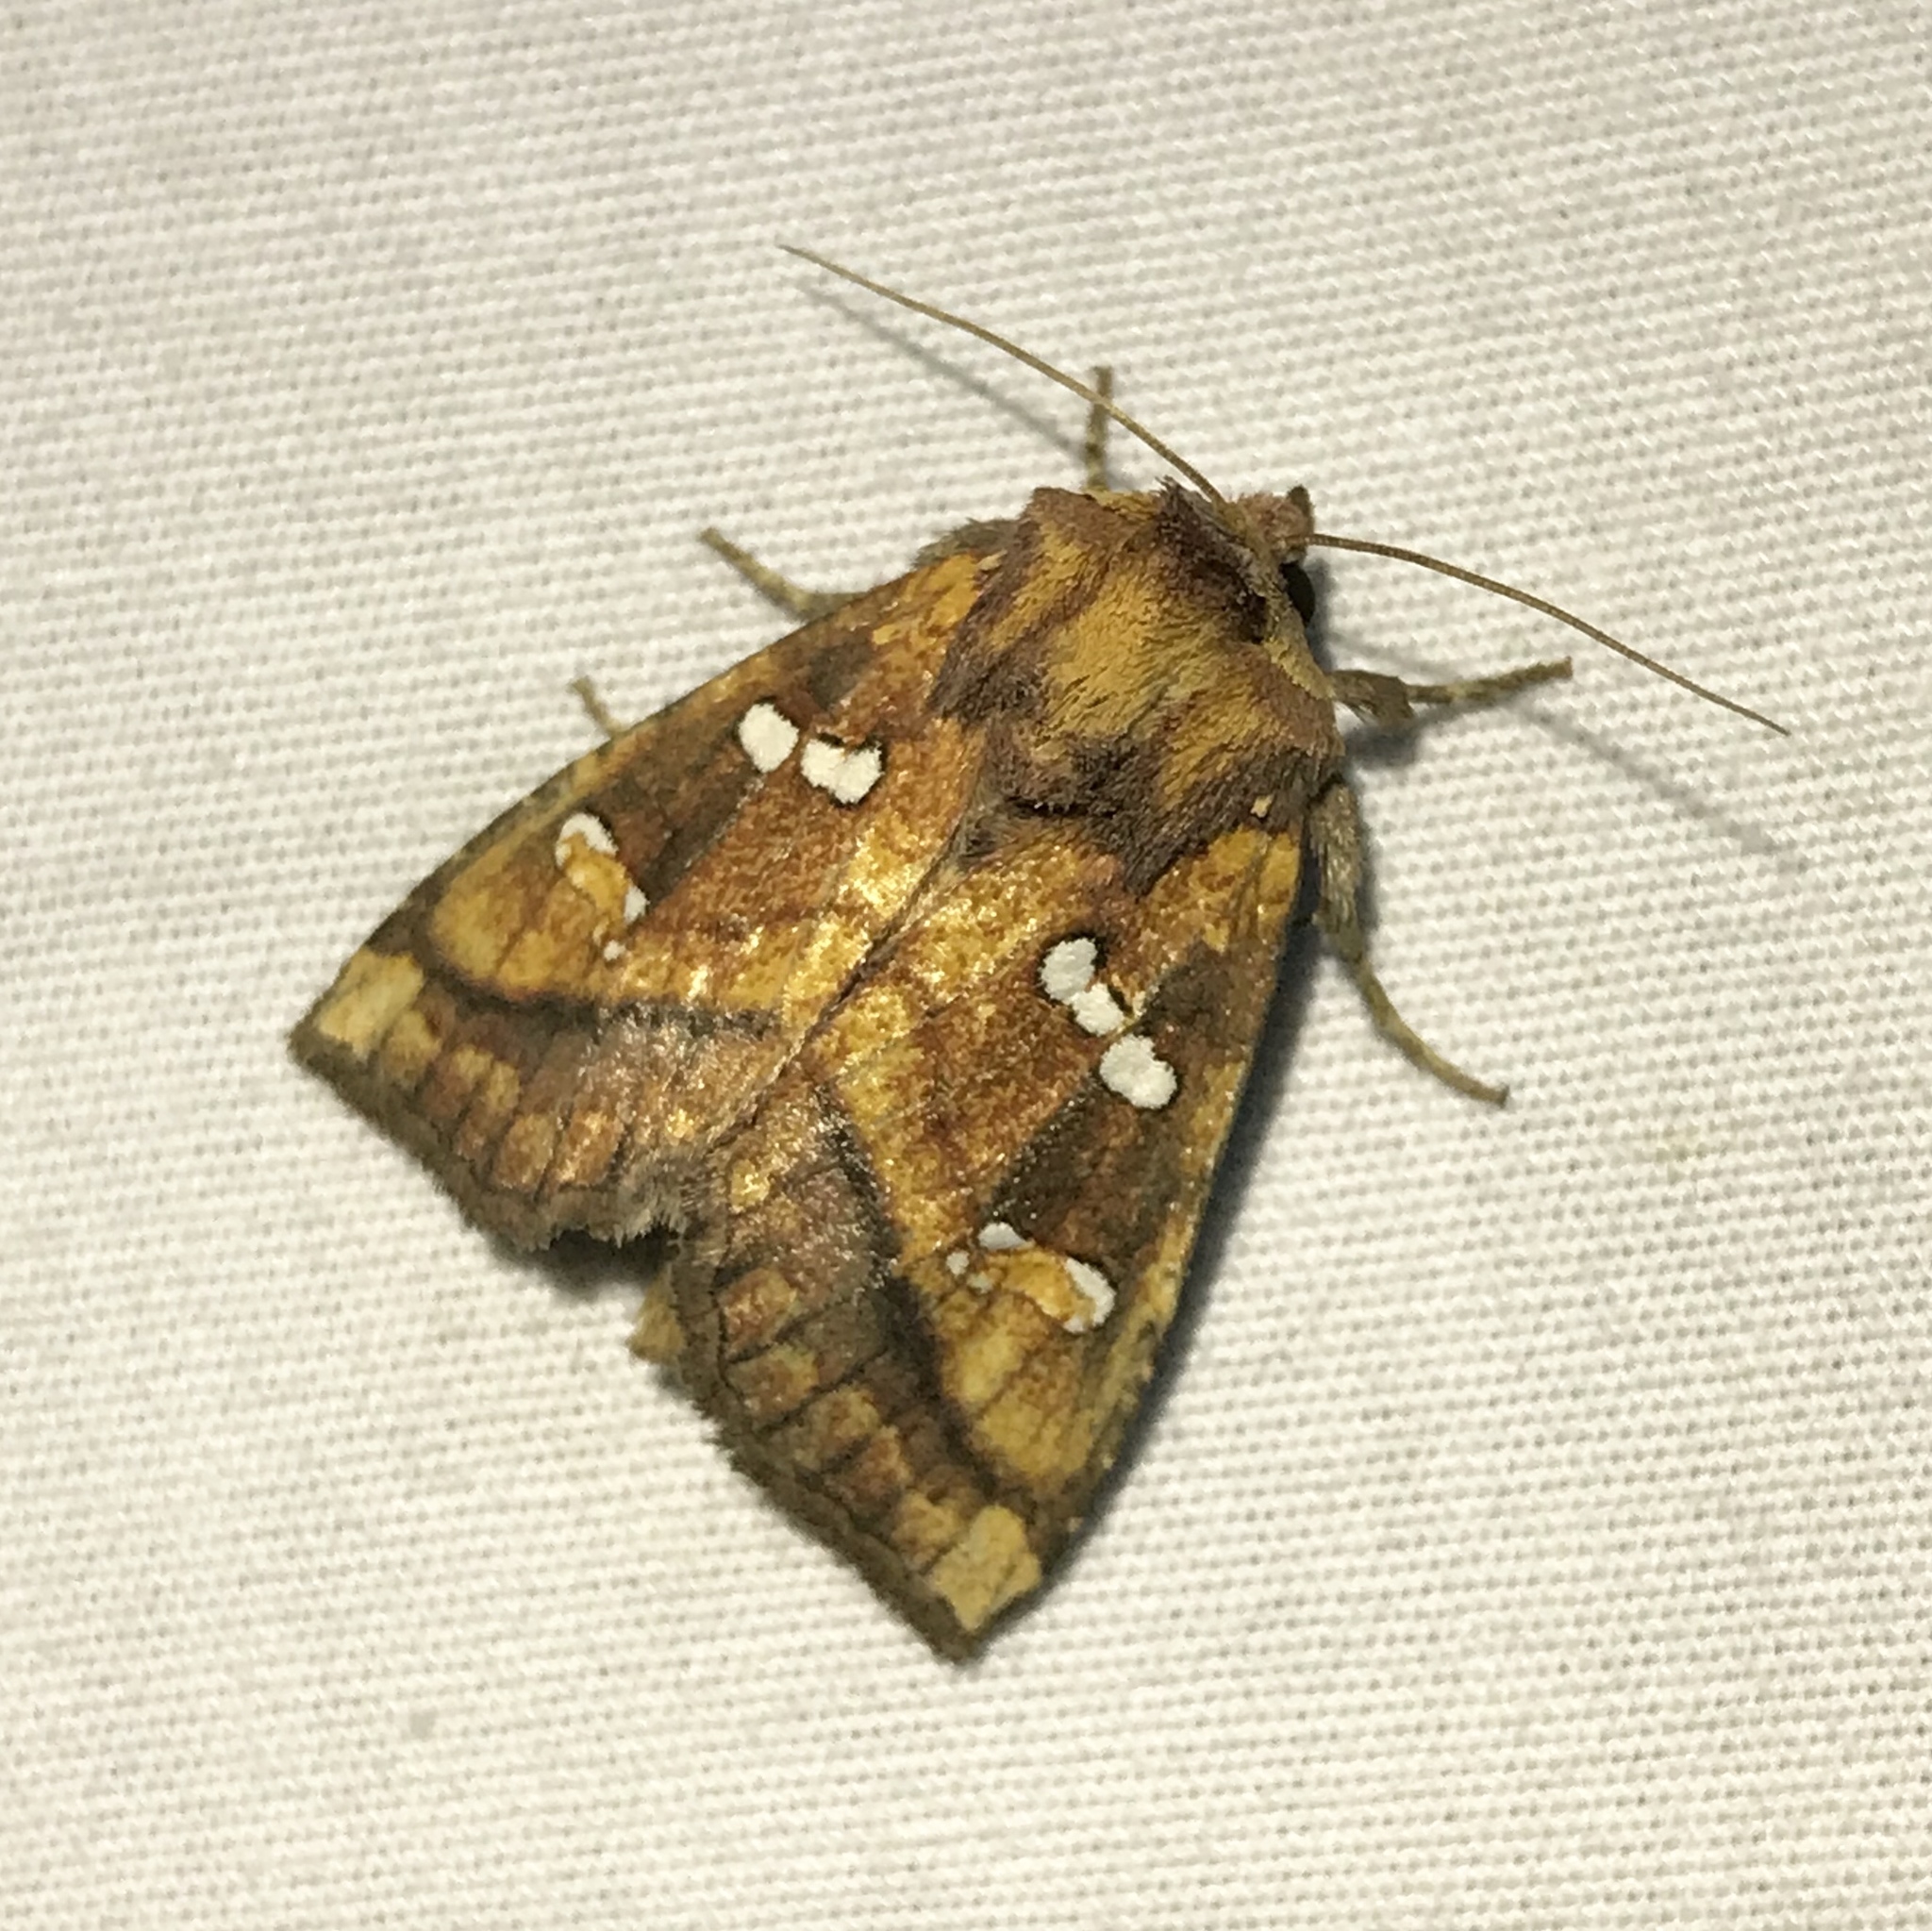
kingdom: Animalia
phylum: Arthropoda
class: Insecta
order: Lepidoptera
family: Noctuidae
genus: Papaipema
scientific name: Papaipema pterisii
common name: Bracken borer moth
